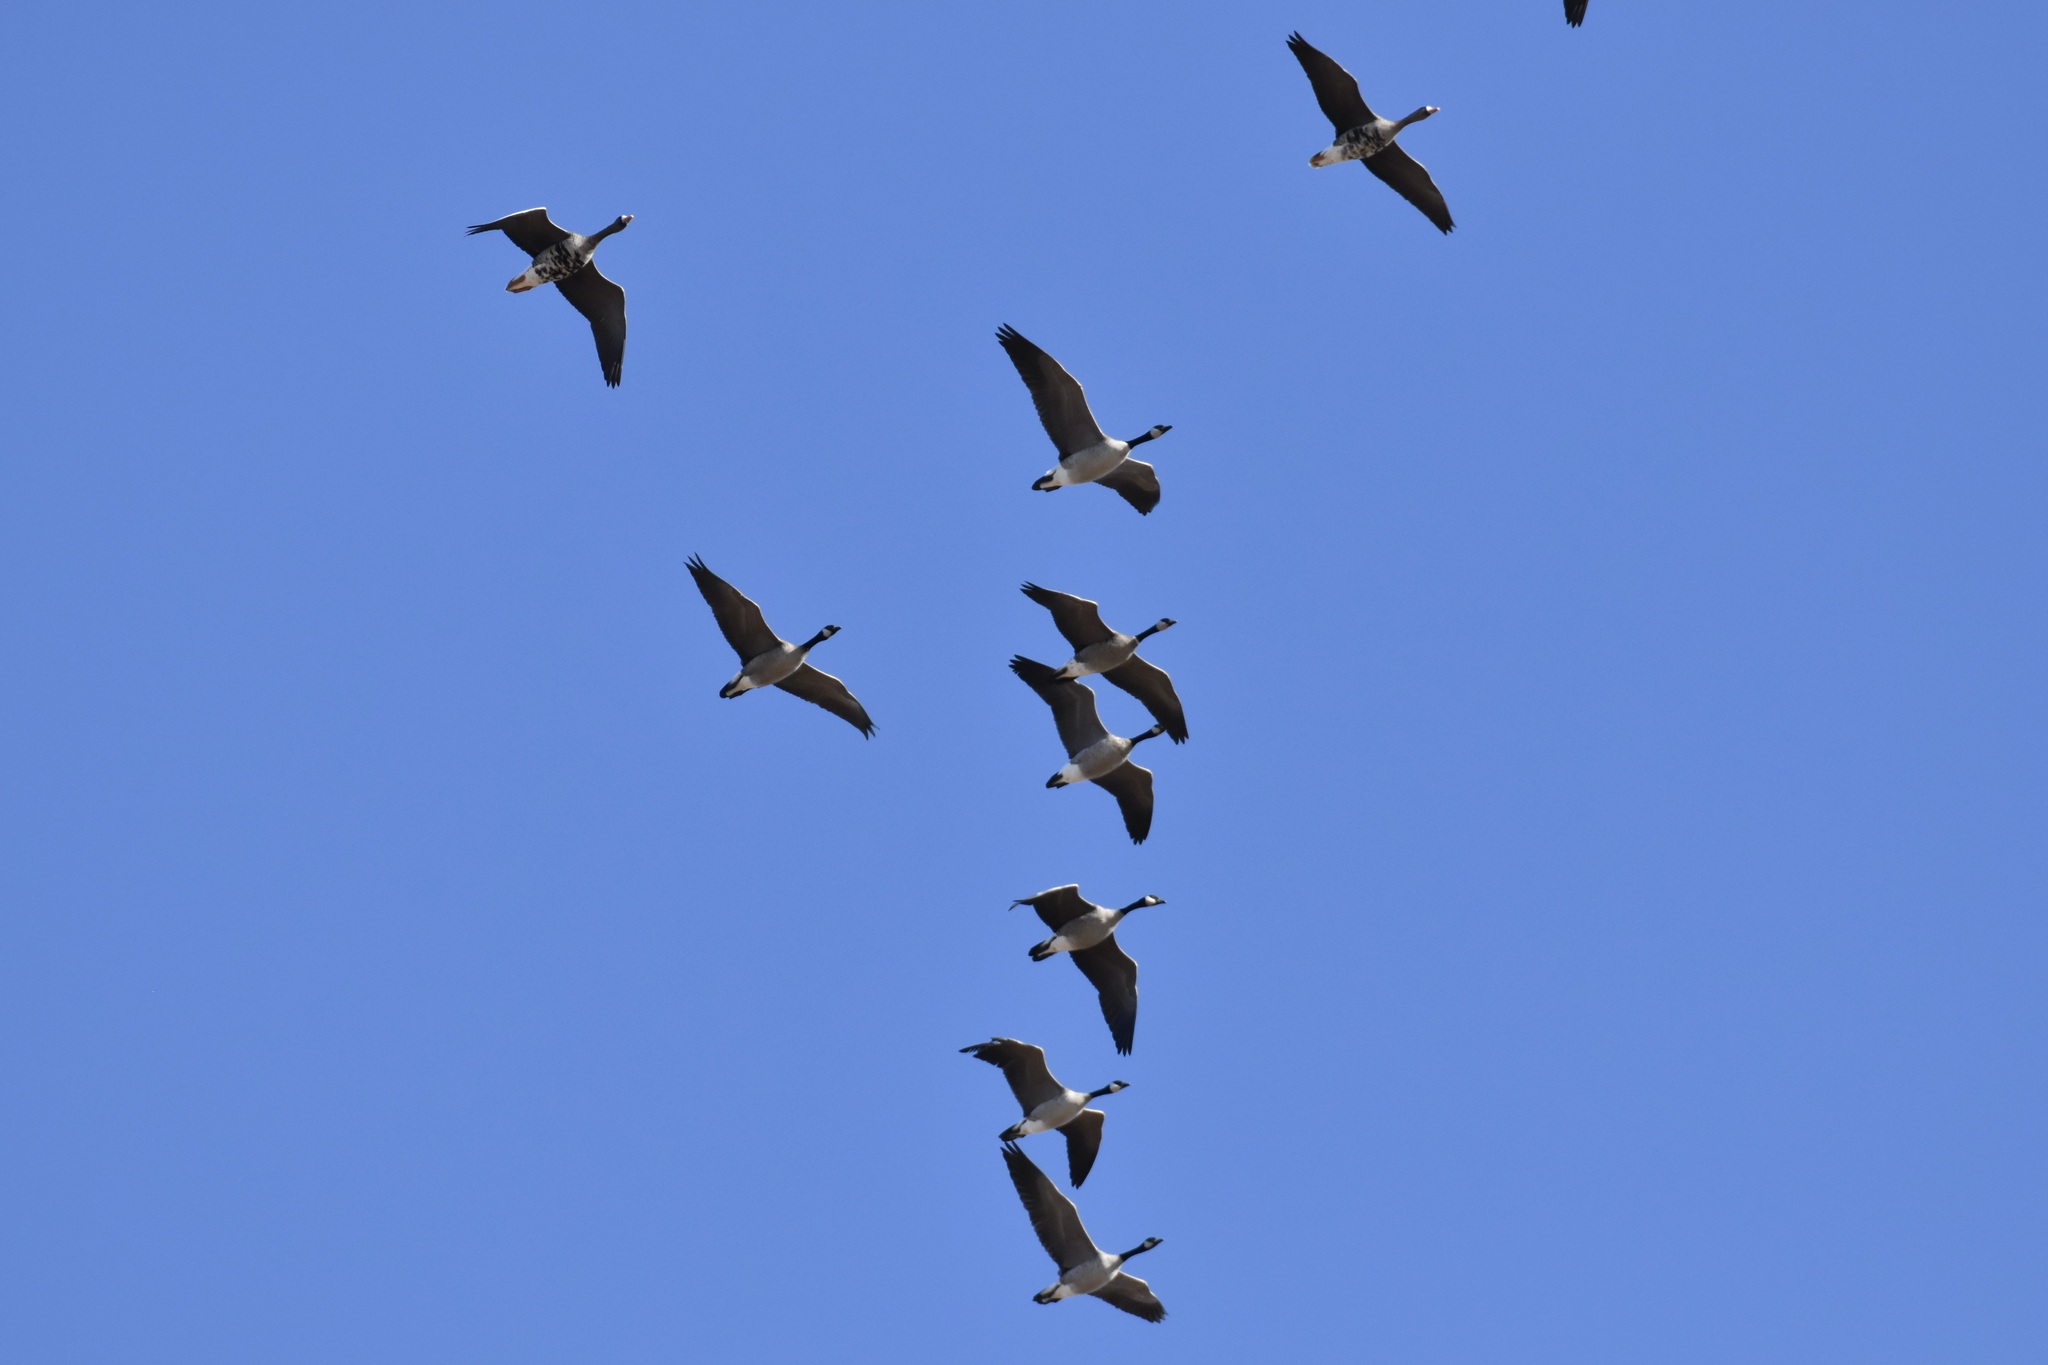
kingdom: Animalia
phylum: Chordata
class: Aves
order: Anseriformes
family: Anatidae
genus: Branta
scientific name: Branta canadensis
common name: Canada goose
